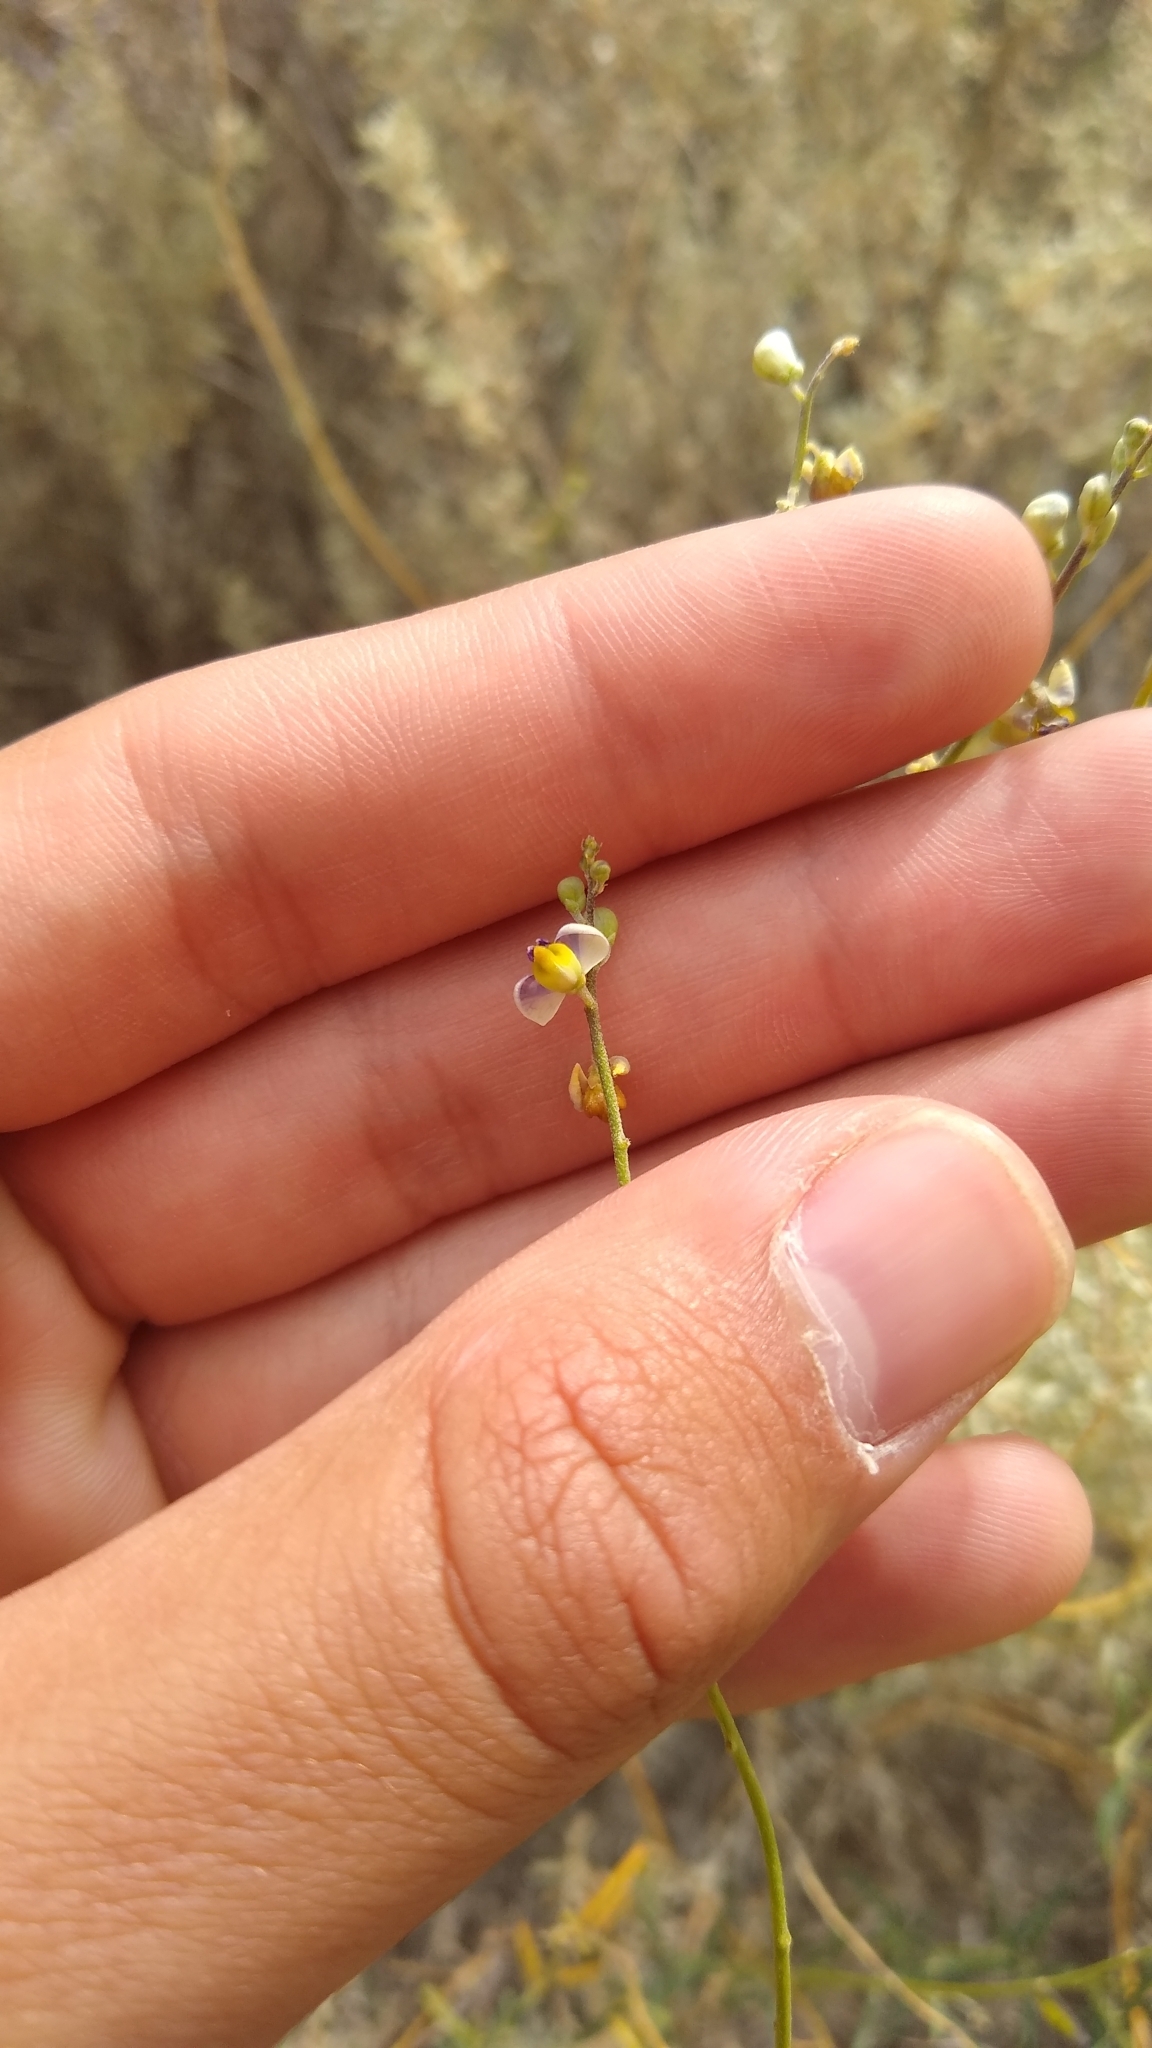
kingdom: Plantae
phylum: Tracheophyta
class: Magnoliopsida
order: Fabales
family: Polygalaceae
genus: Monnina
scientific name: Monnina dictyocarpa
